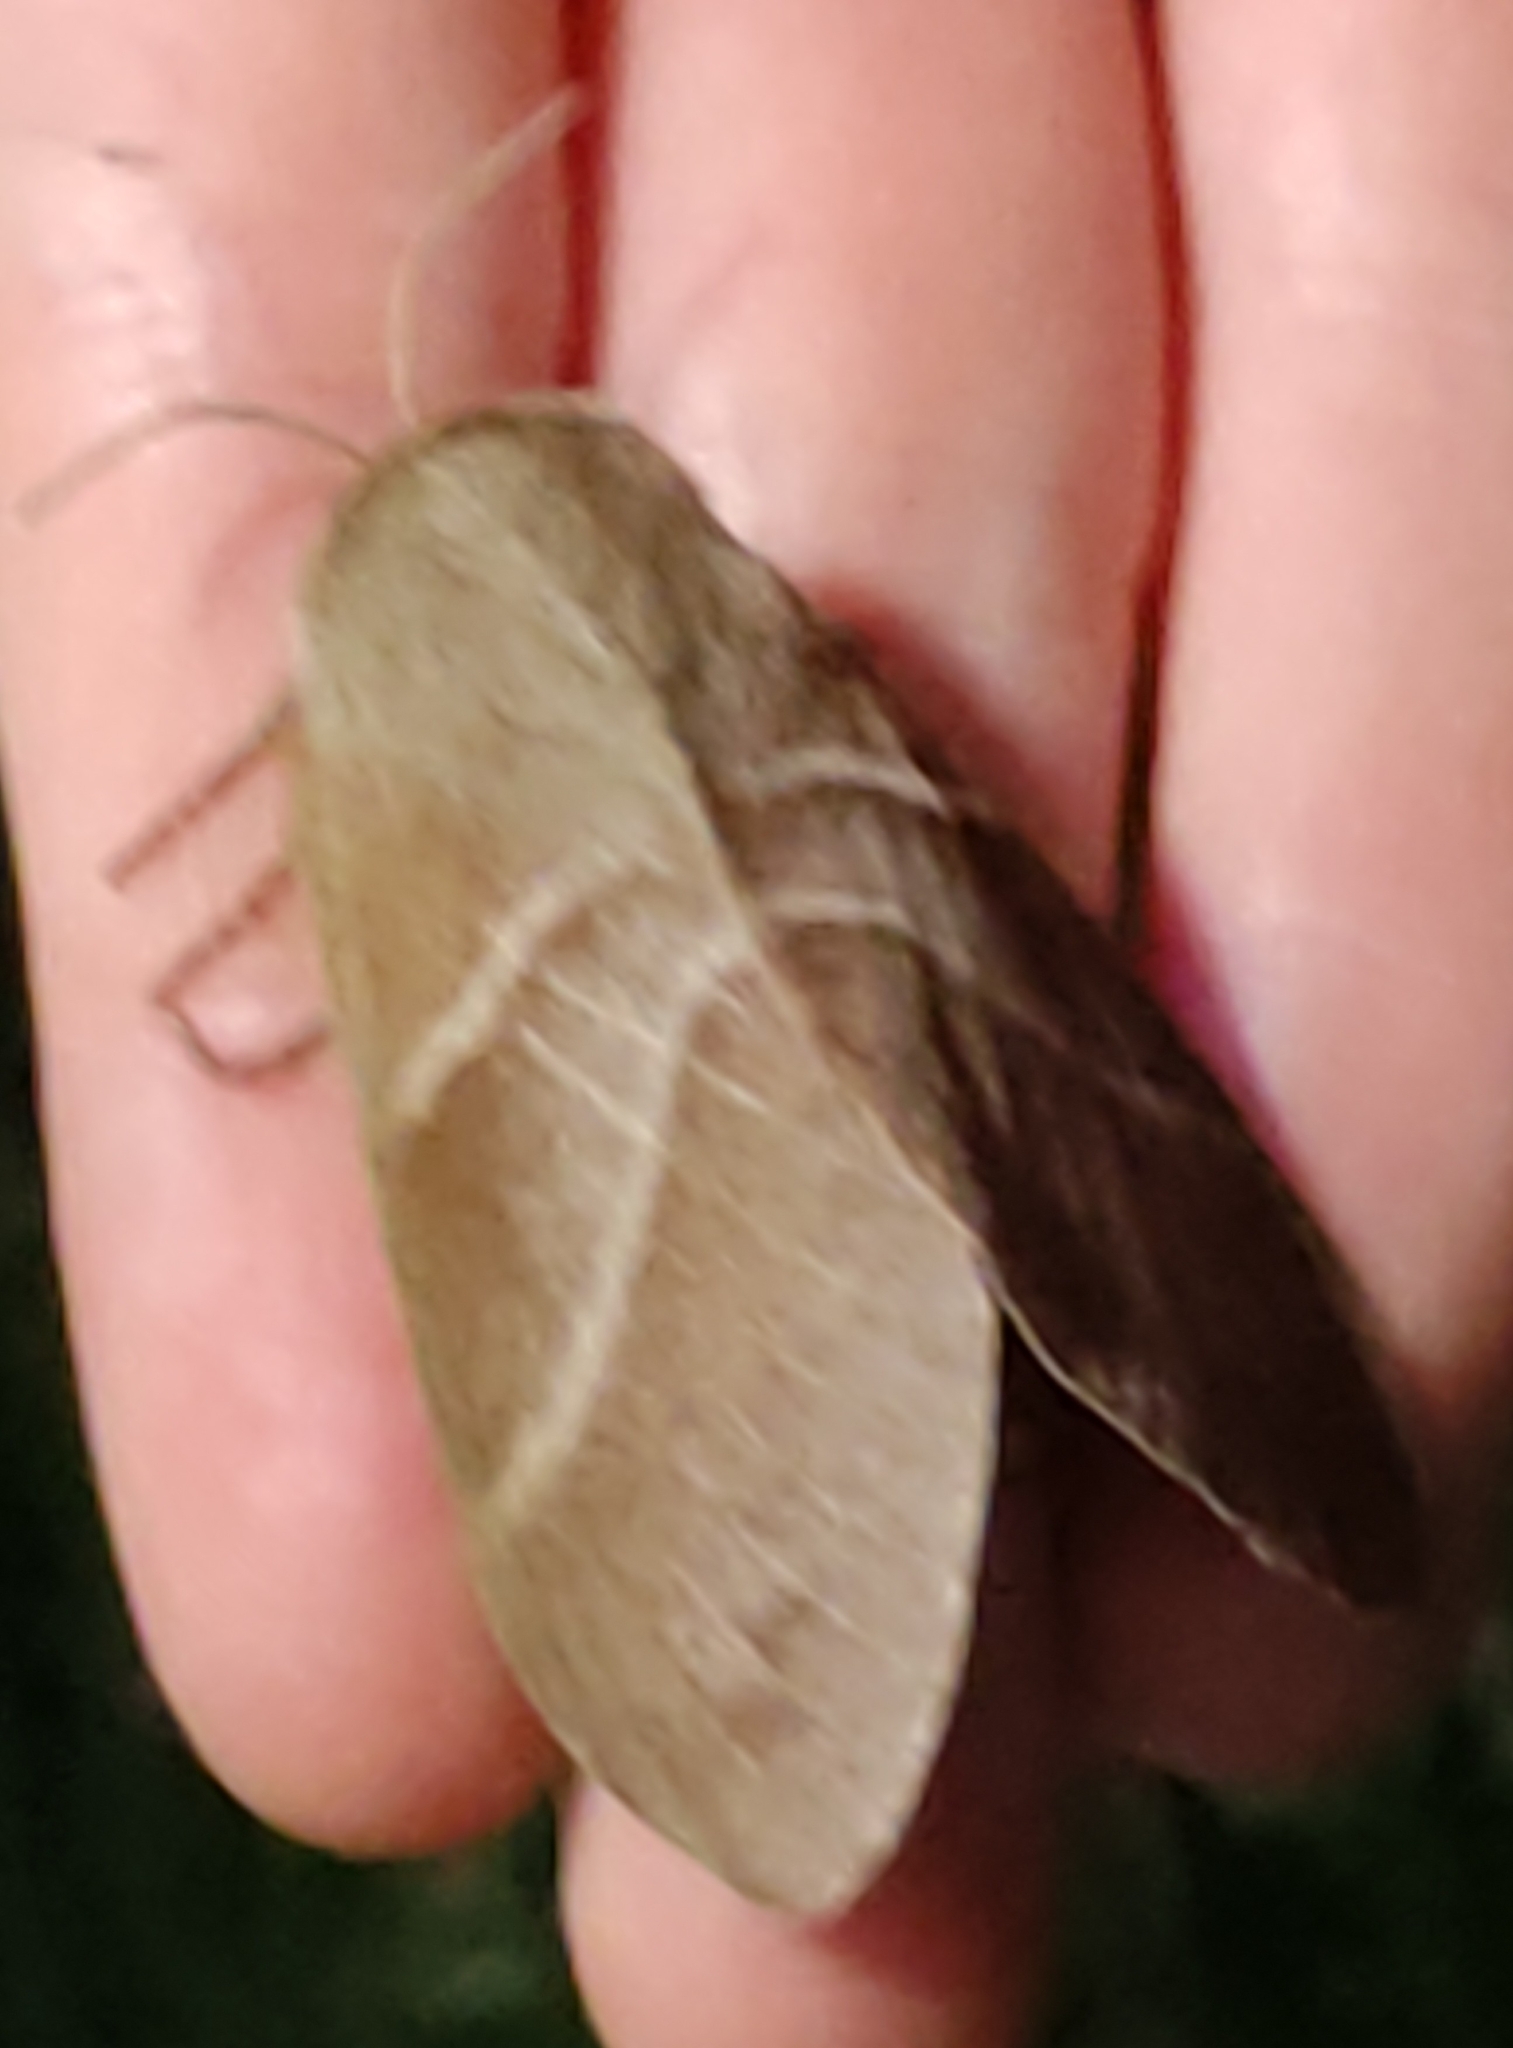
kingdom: Animalia
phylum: Arthropoda
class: Insecta
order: Lepidoptera
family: Lasiocampidae
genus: Macrothylacia
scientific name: Macrothylacia rubi
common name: Fox moth
